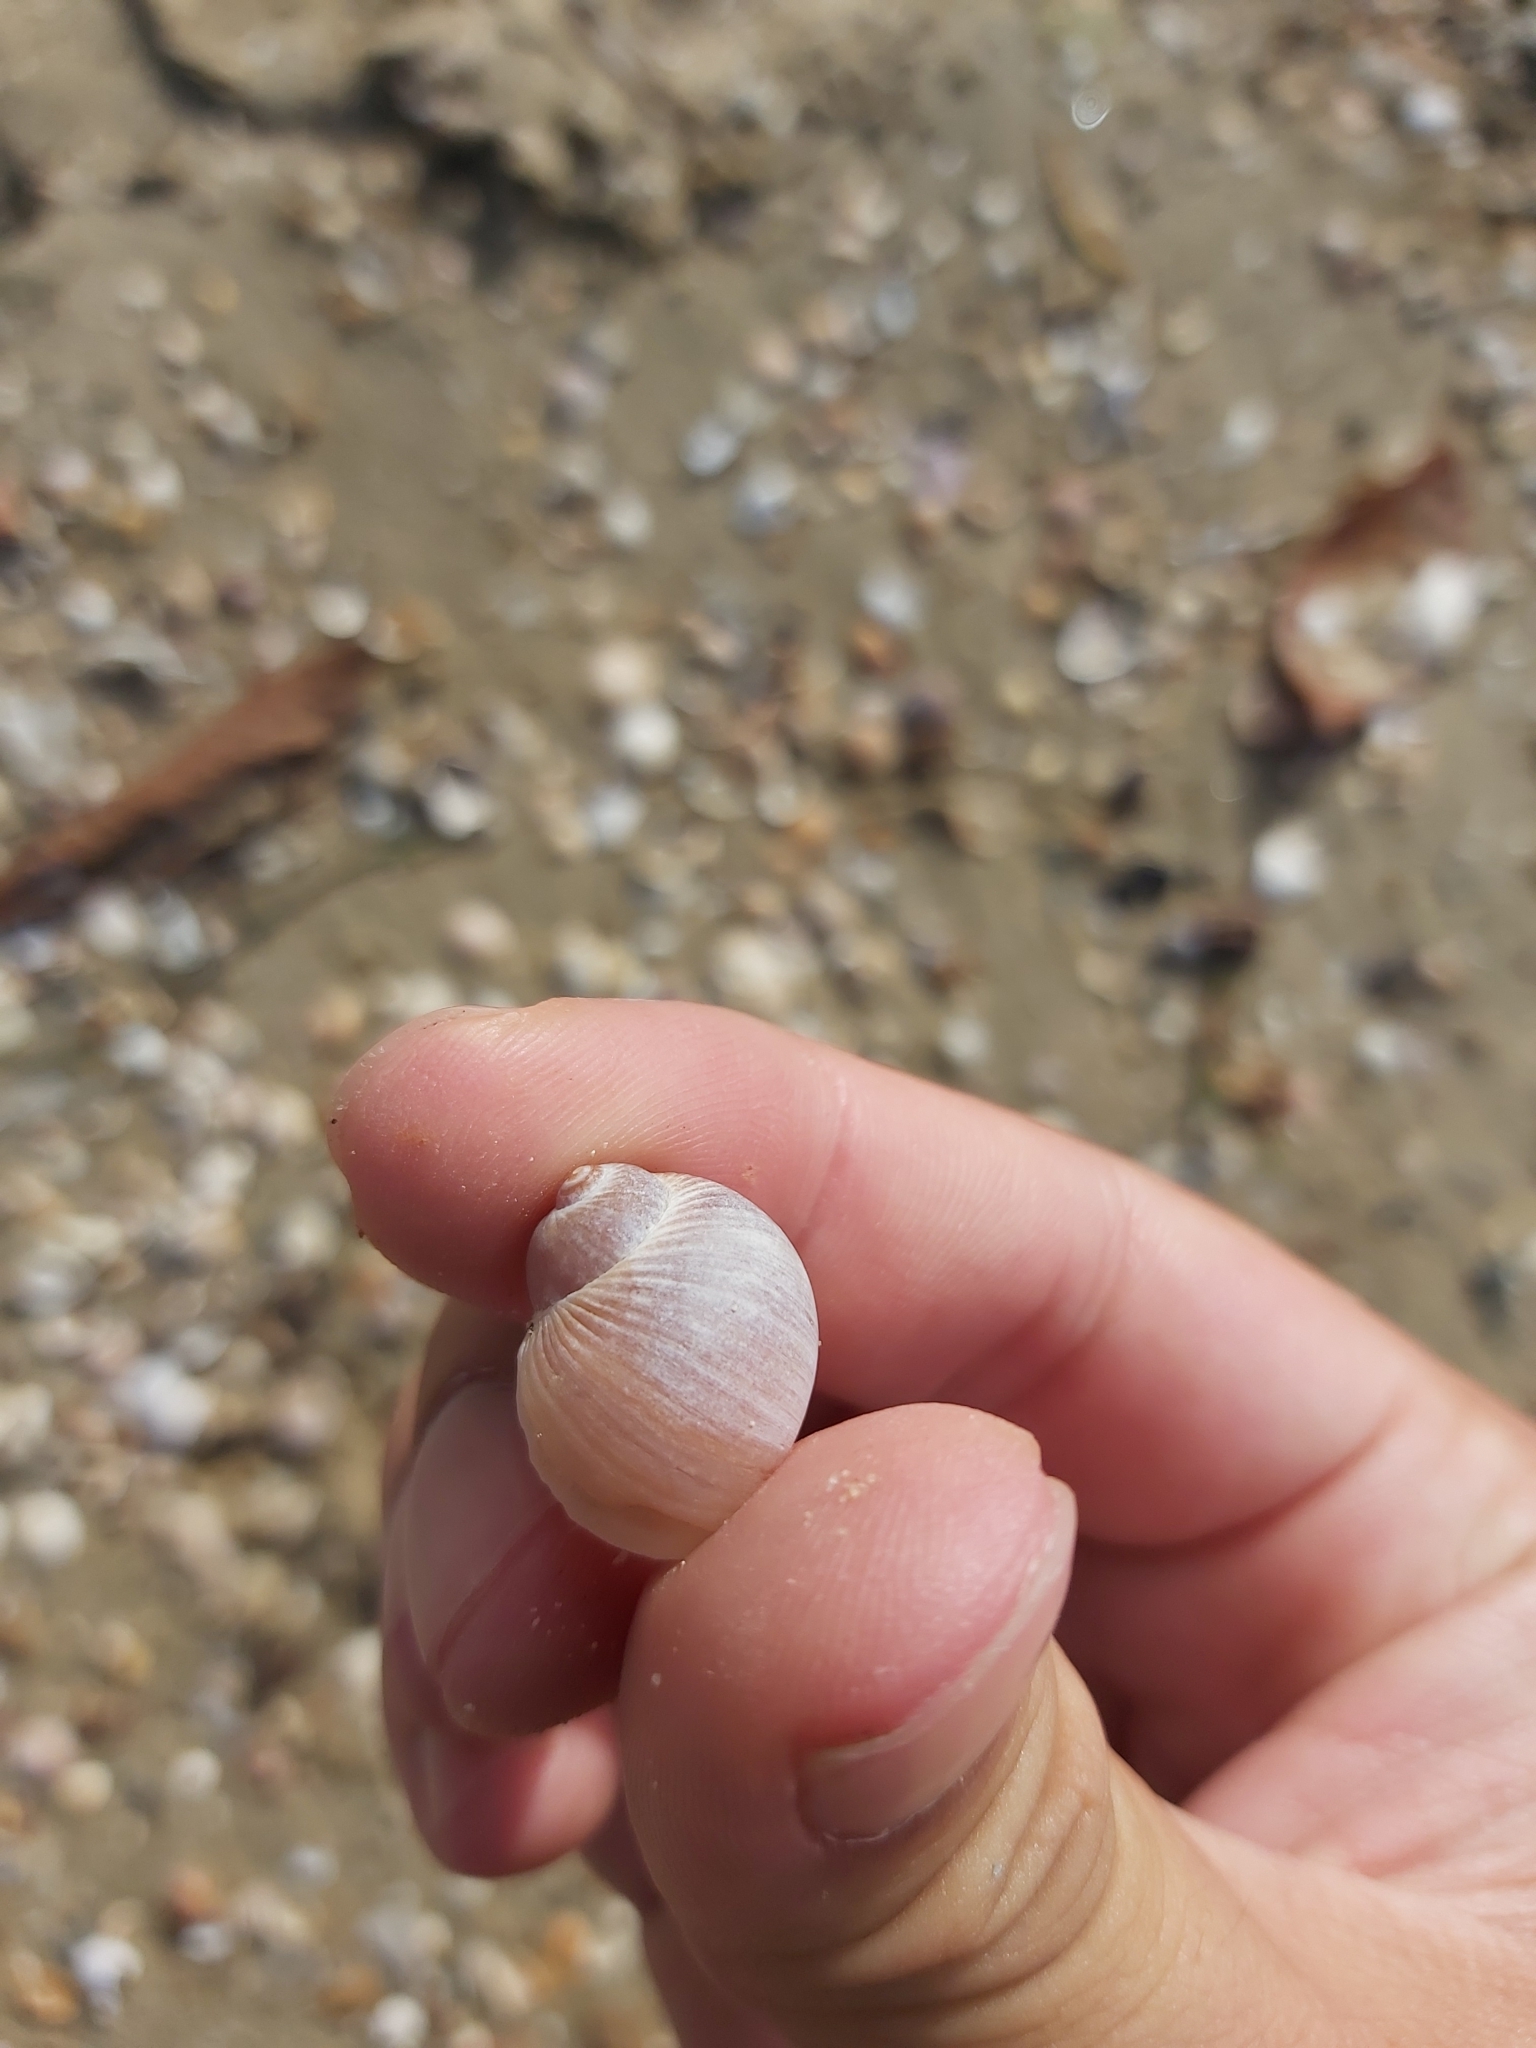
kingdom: Animalia
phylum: Mollusca
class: Gastropoda
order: Littorinimorpha
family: Naticidae
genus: Notocochlis
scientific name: Notocochlis gualteriana
